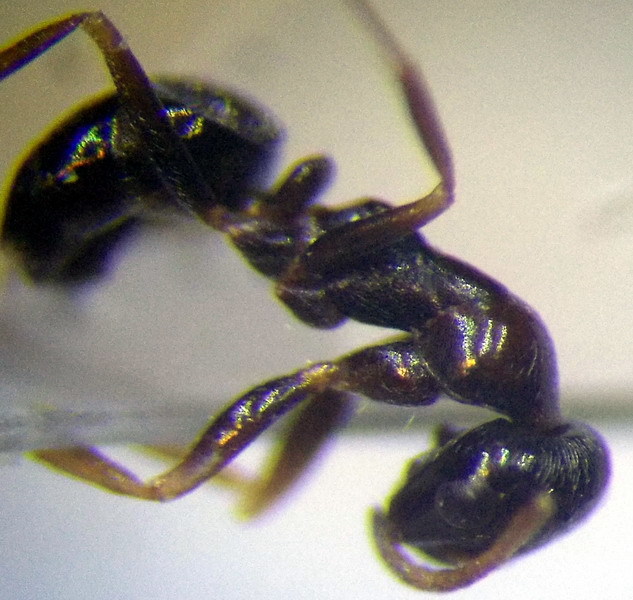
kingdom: Animalia
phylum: Arthropoda
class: Insecta
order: Hymenoptera
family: Formicidae
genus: Proformica
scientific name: Proformica epinotalis
